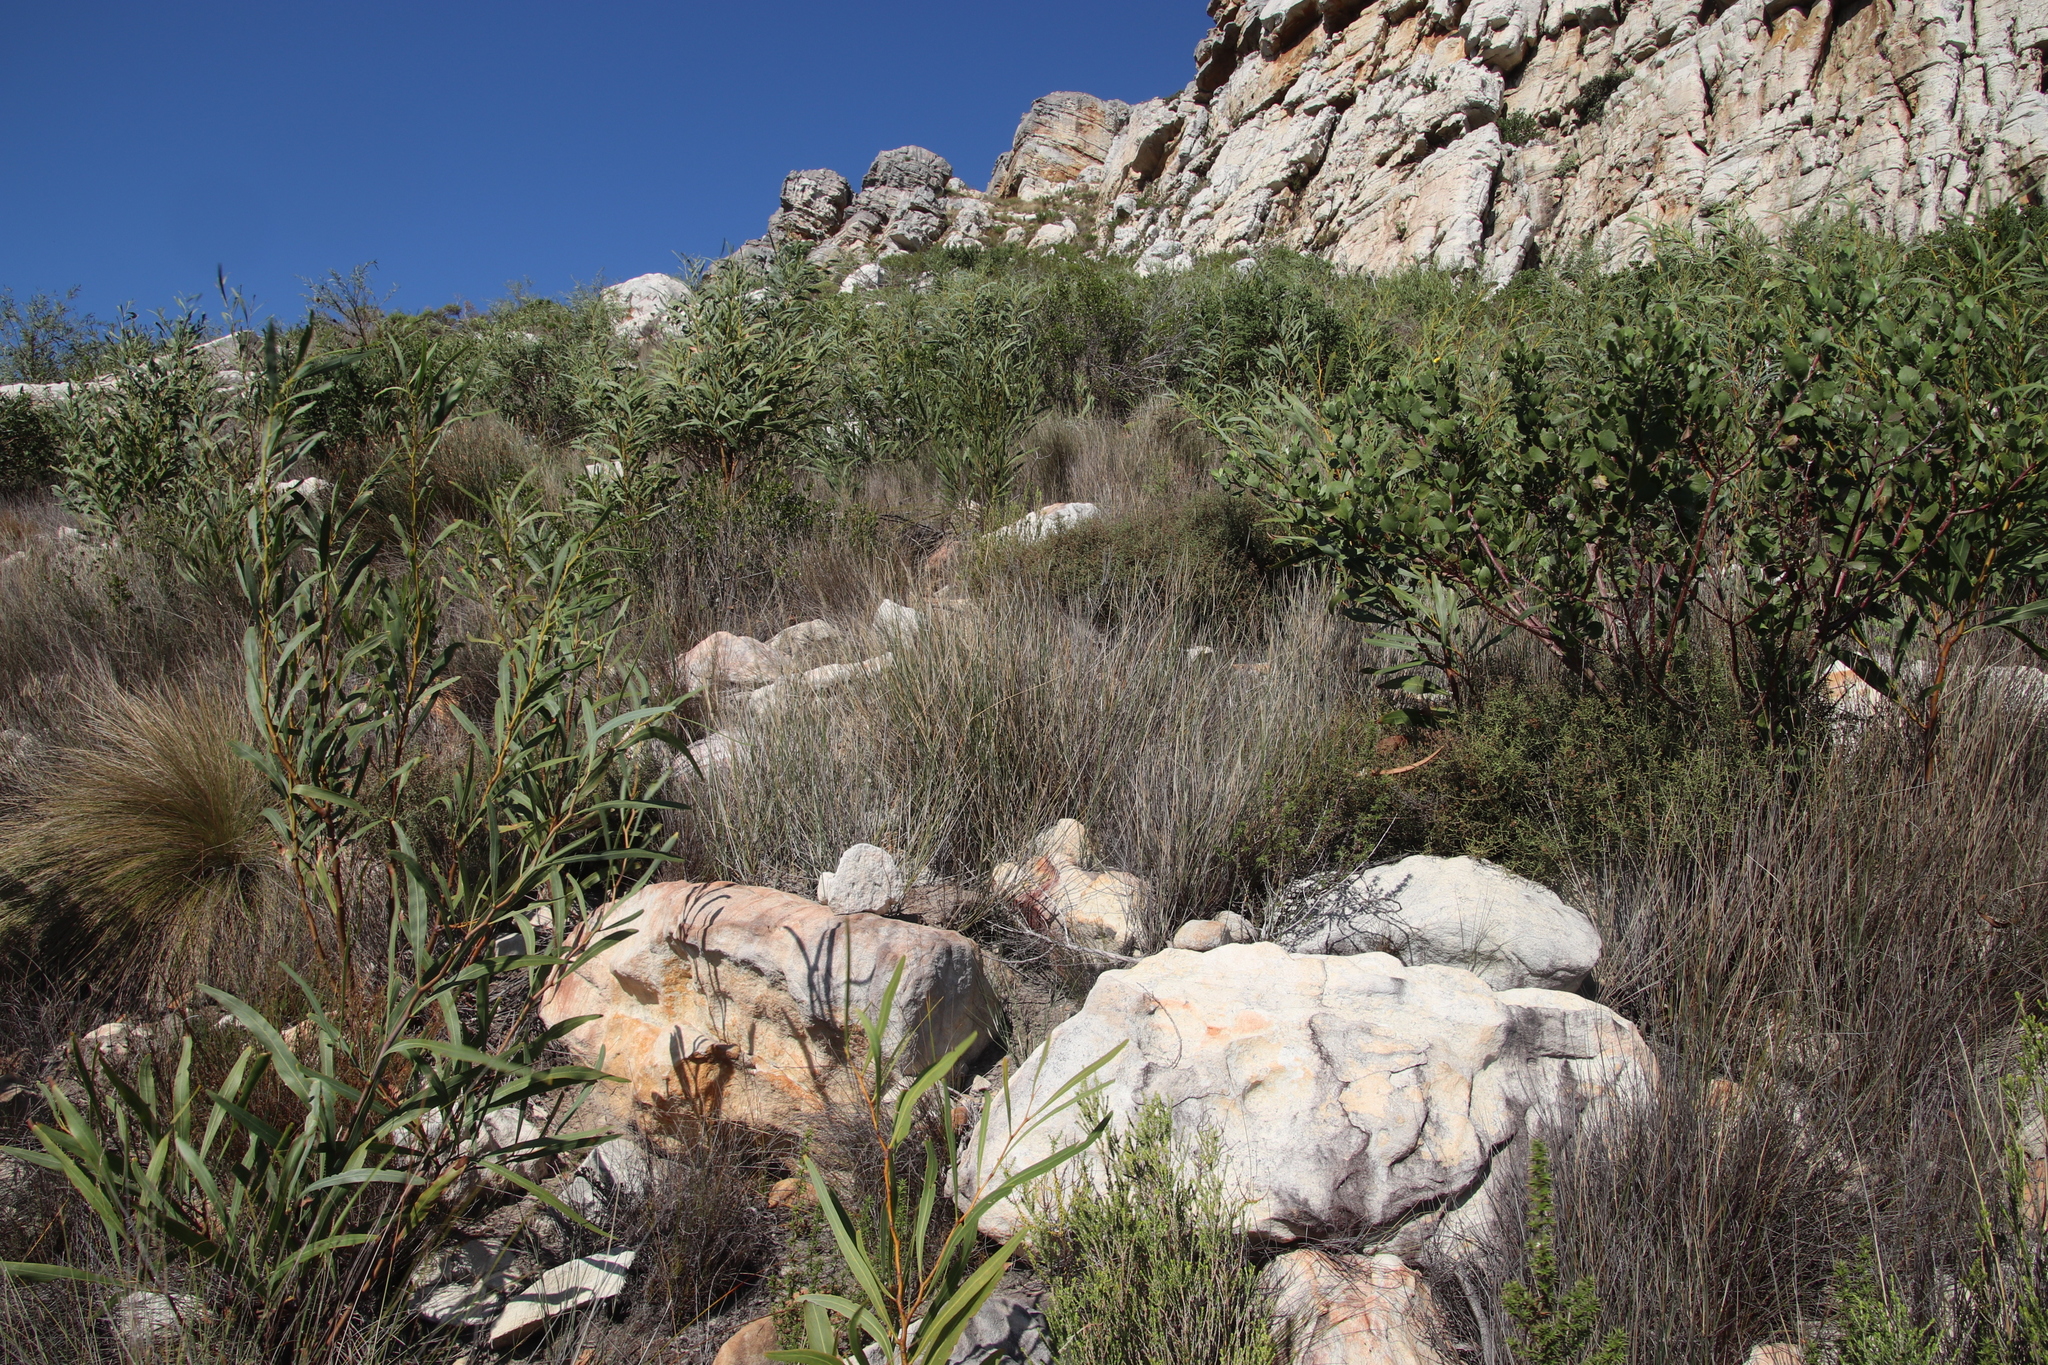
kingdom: Plantae
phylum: Tracheophyta
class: Liliopsida
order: Poales
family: Poaceae
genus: Ehrharta
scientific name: Ehrharta villosa
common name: Pyp grass
